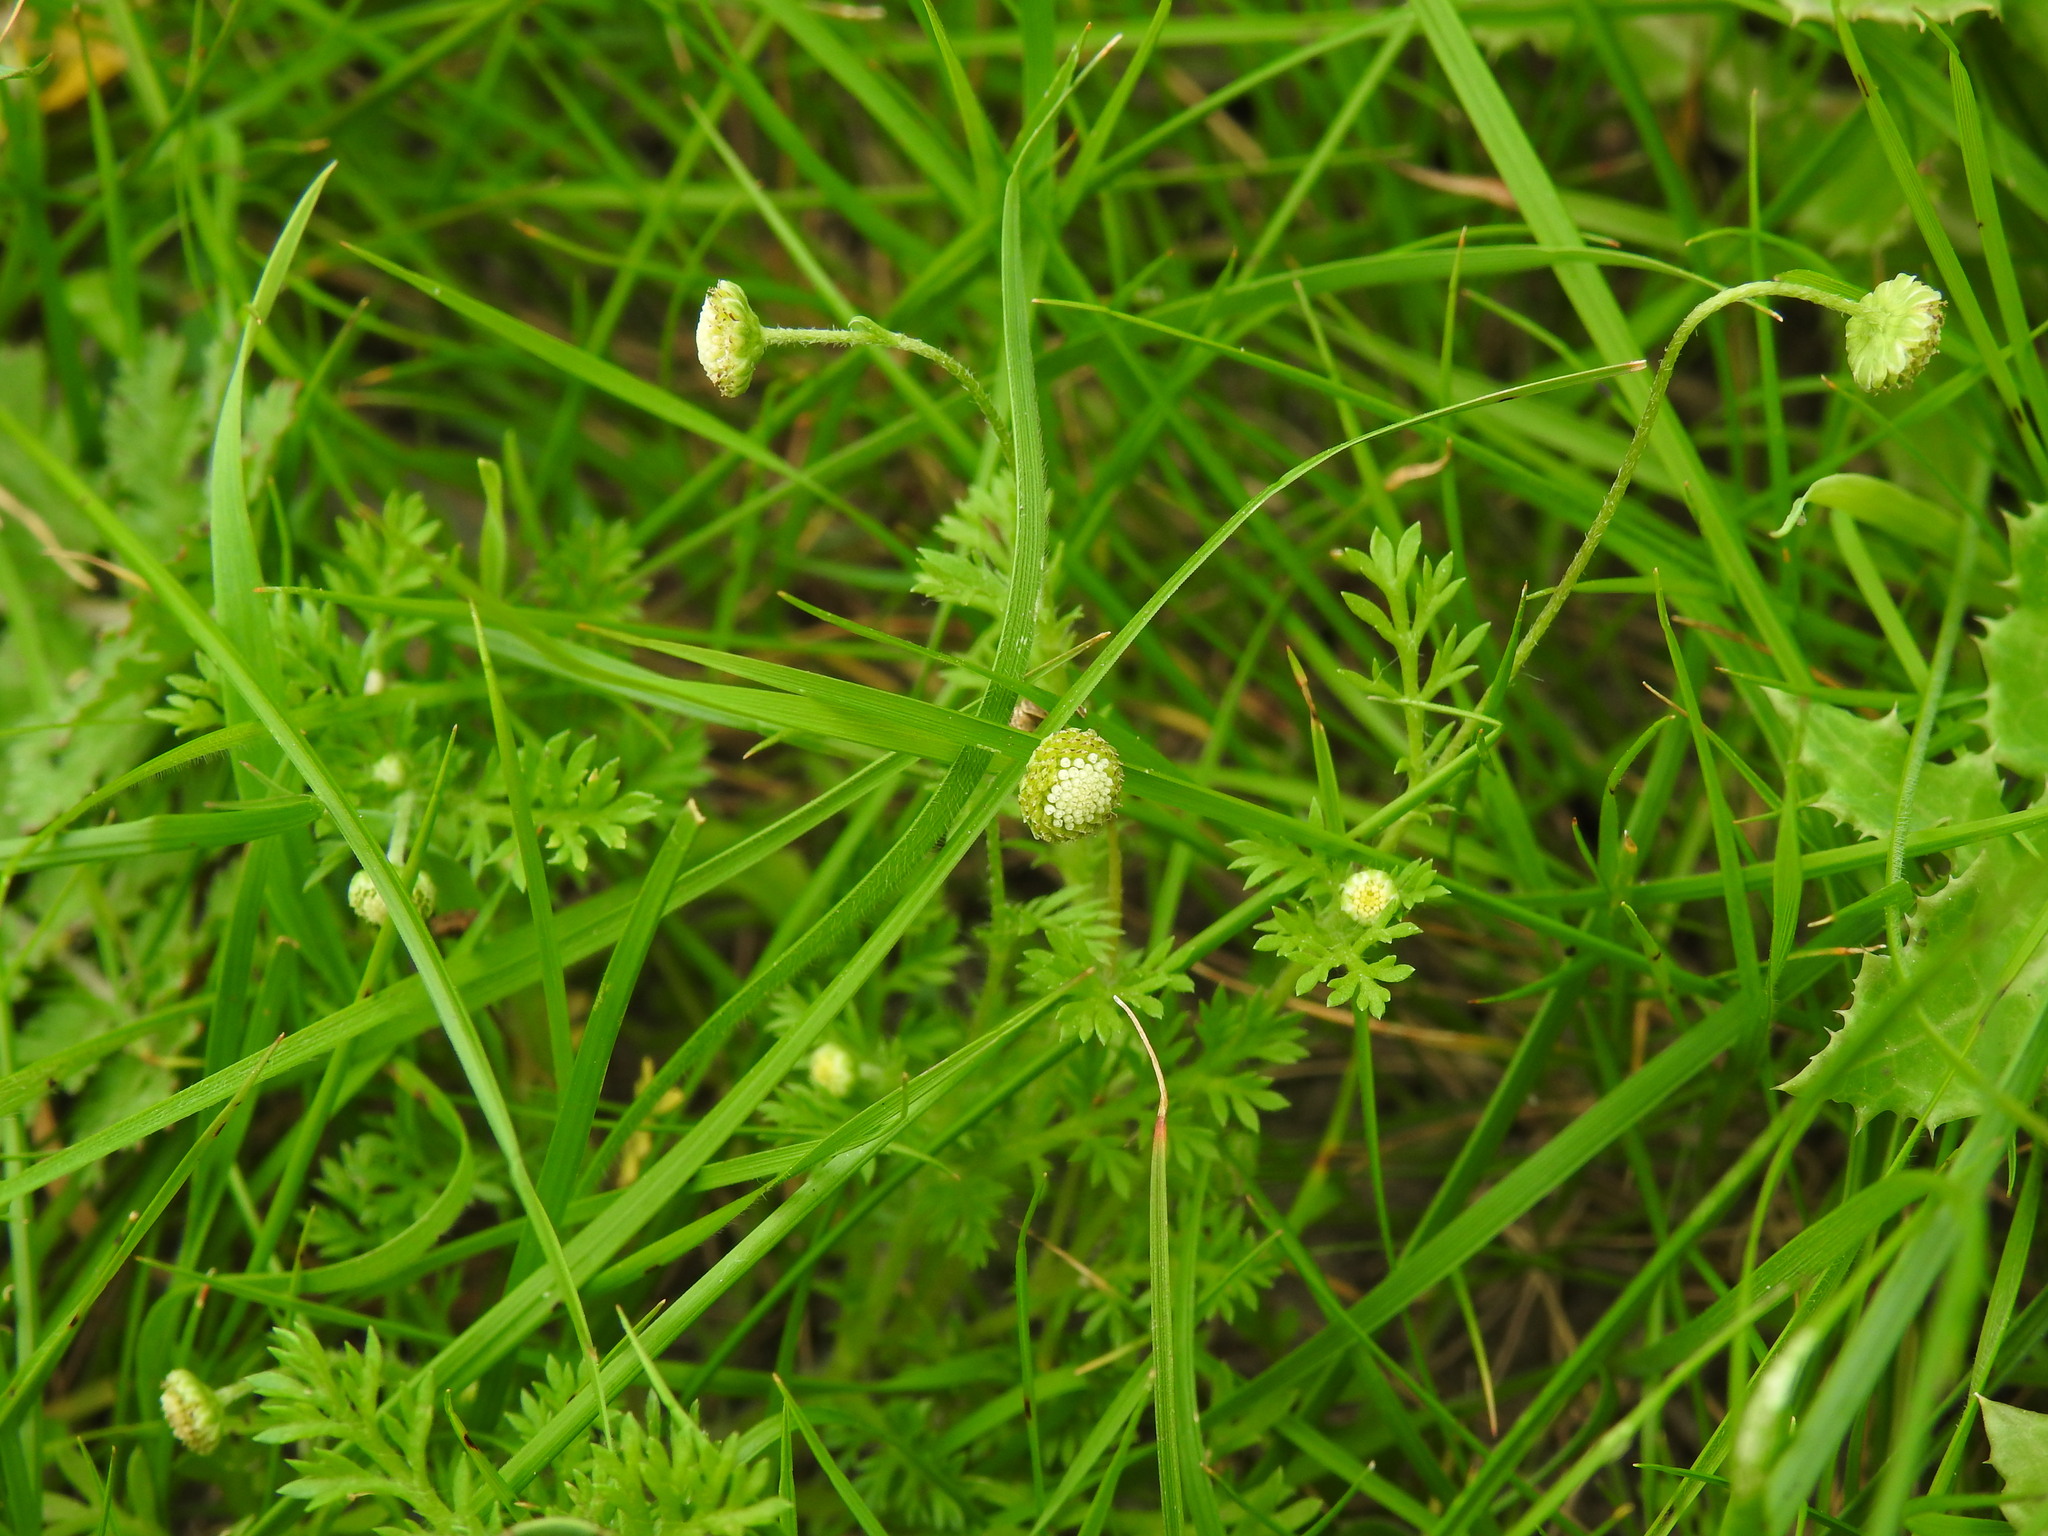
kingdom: Plantae
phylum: Tracheophyta
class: Magnoliopsida
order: Asterales
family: Asteraceae
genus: Cotula
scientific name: Cotula australis
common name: Australian waterbuttons
